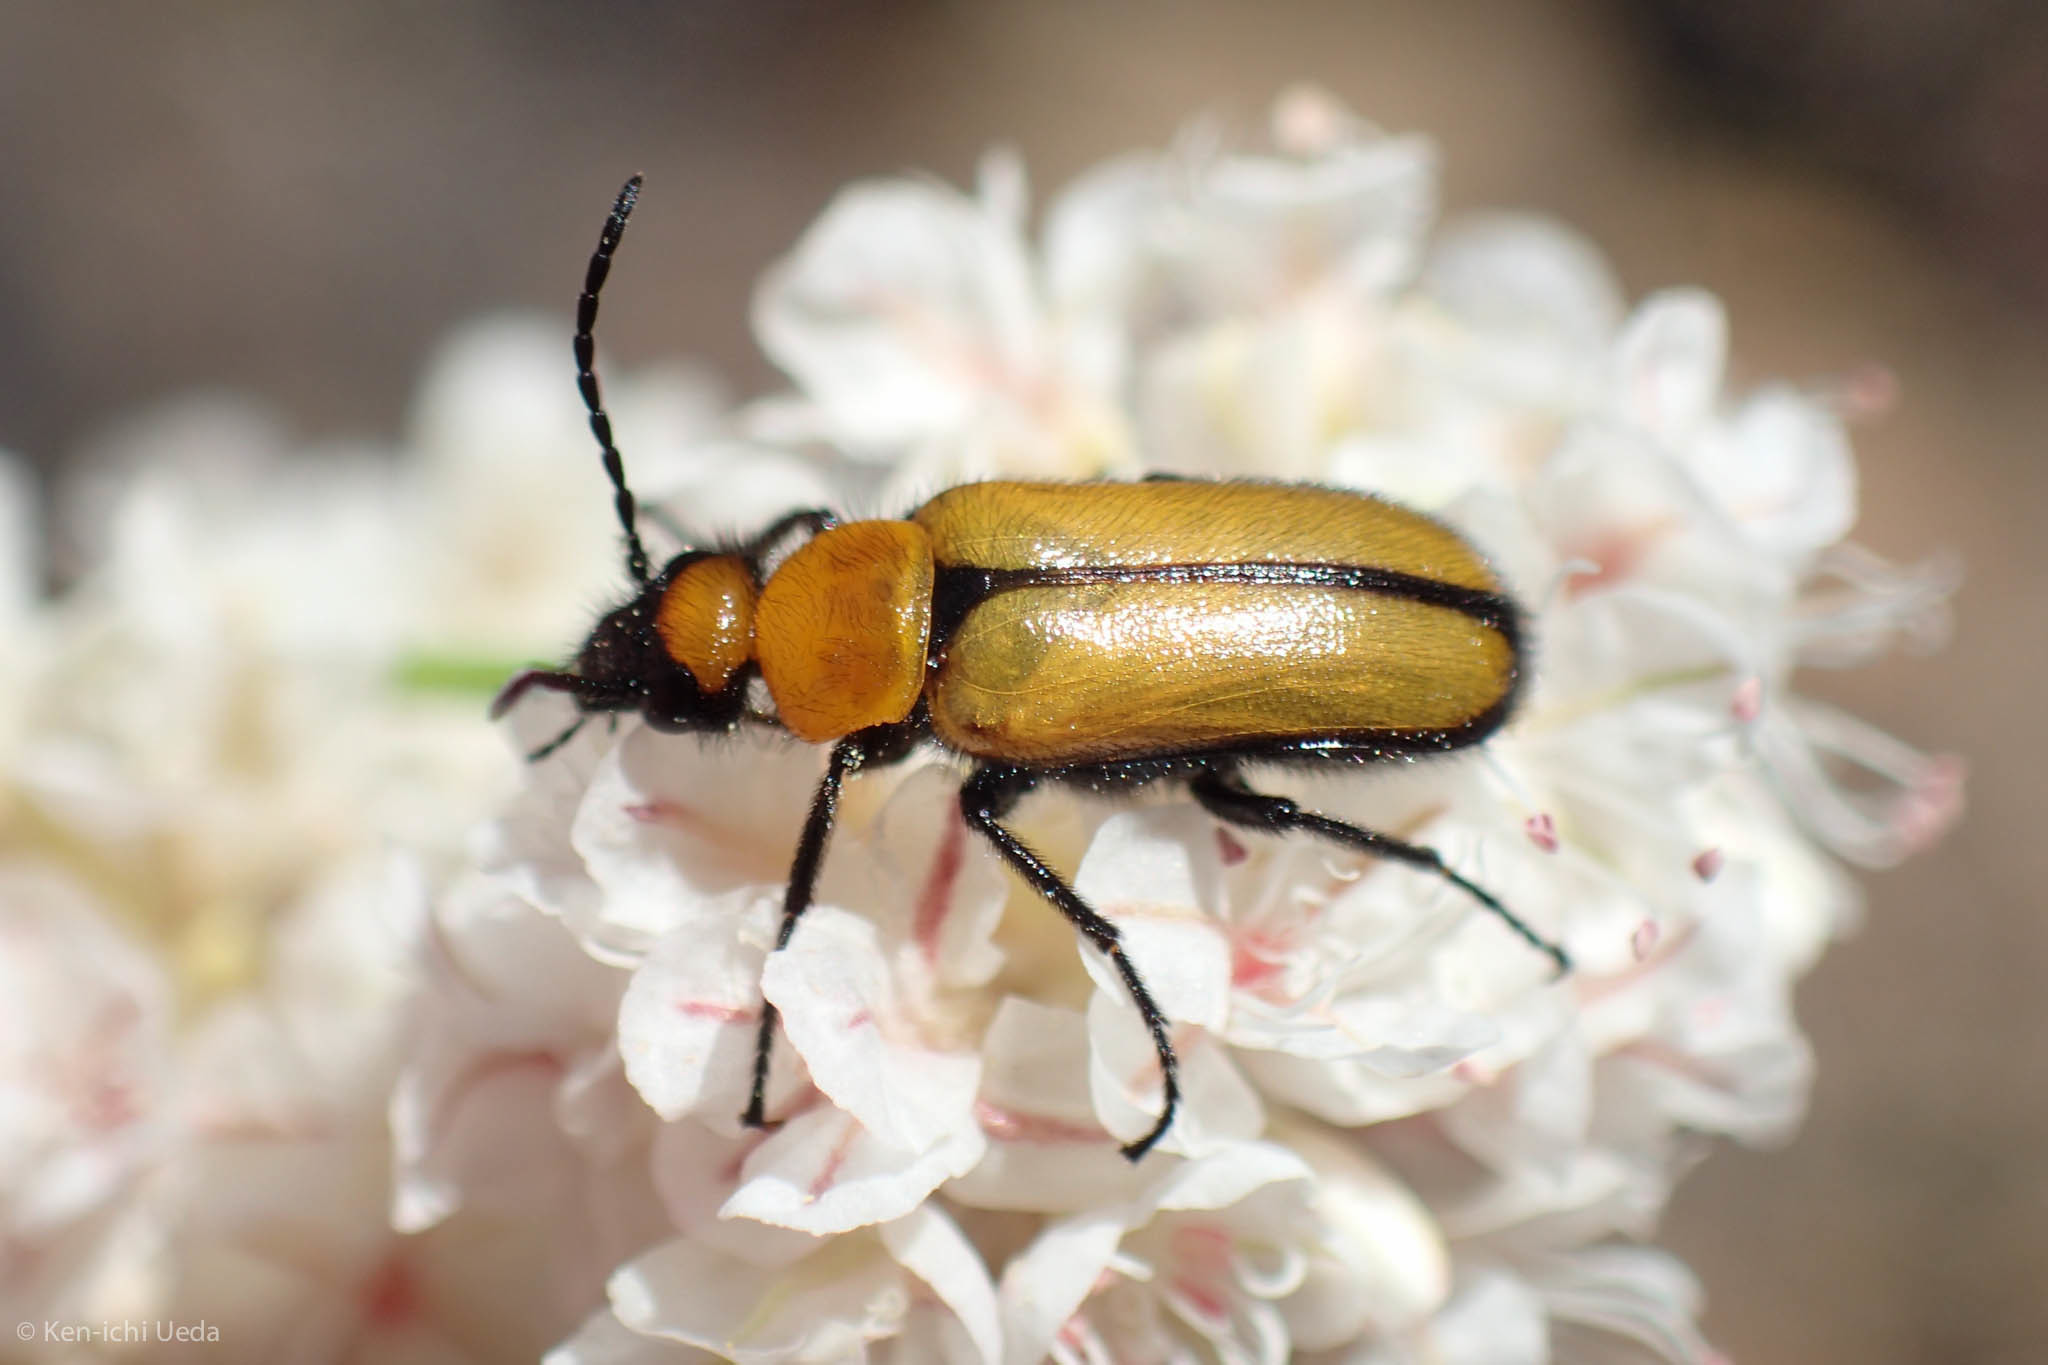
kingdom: Animalia
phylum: Arthropoda
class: Insecta
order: Coleoptera
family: Meloidae
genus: Nemognatha
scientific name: Nemognatha scutellaris
